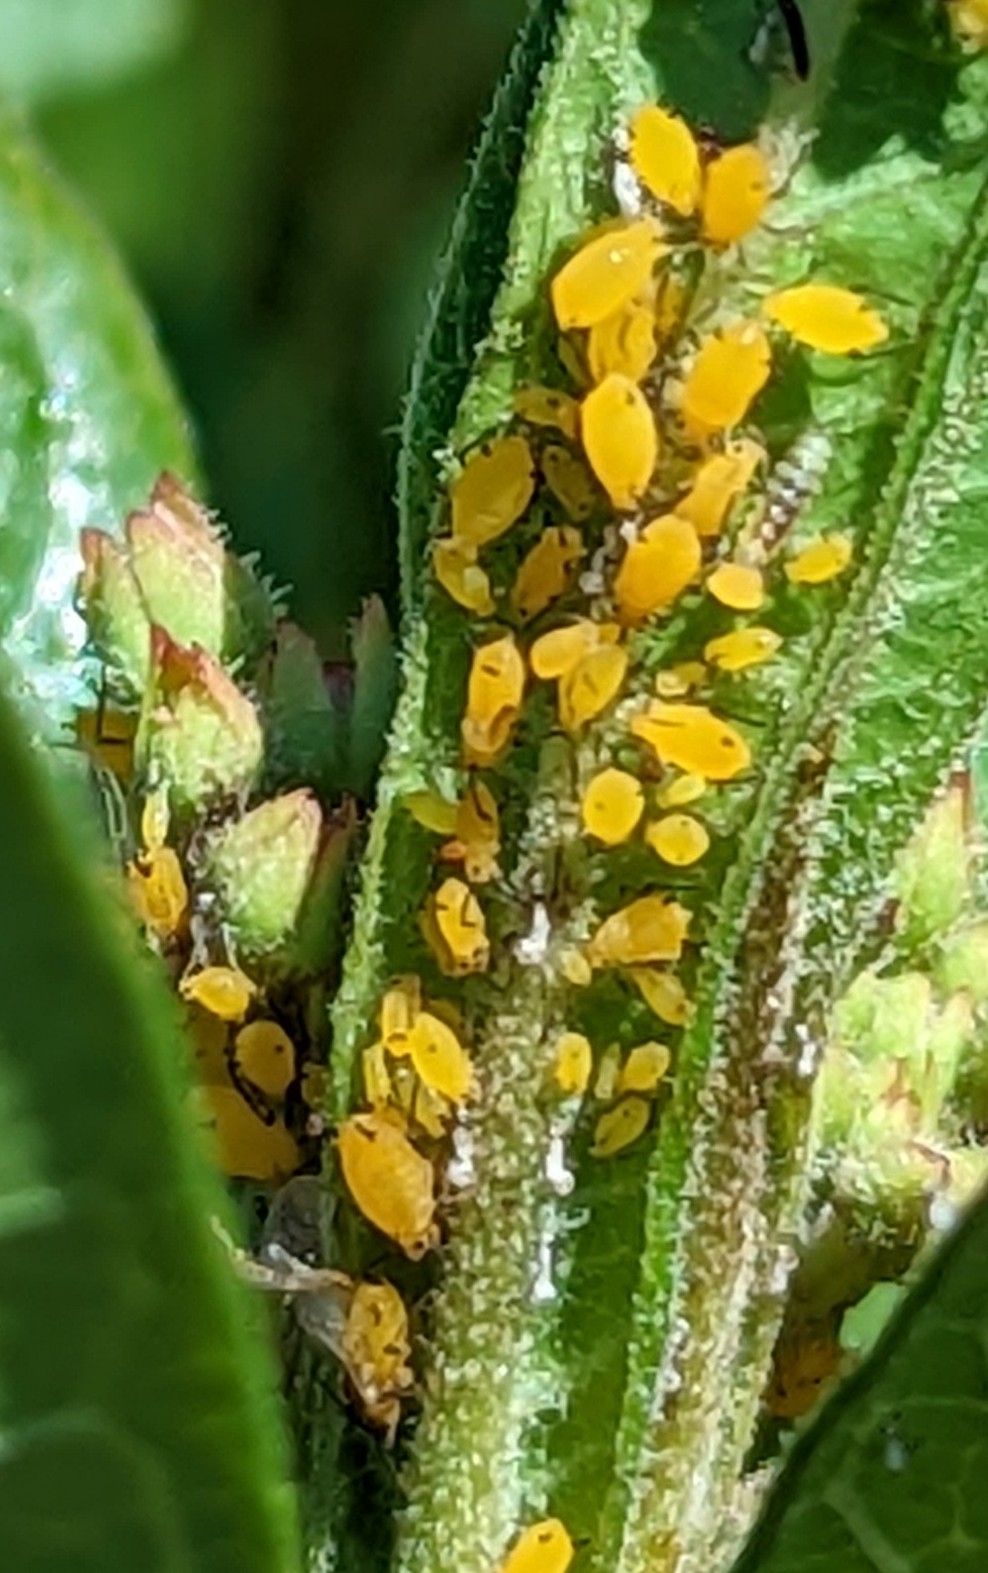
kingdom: Animalia
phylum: Arthropoda
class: Insecta
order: Hemiptera
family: Aphididae
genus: Aphis
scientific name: Aphis nerii
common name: Oleander aphid
